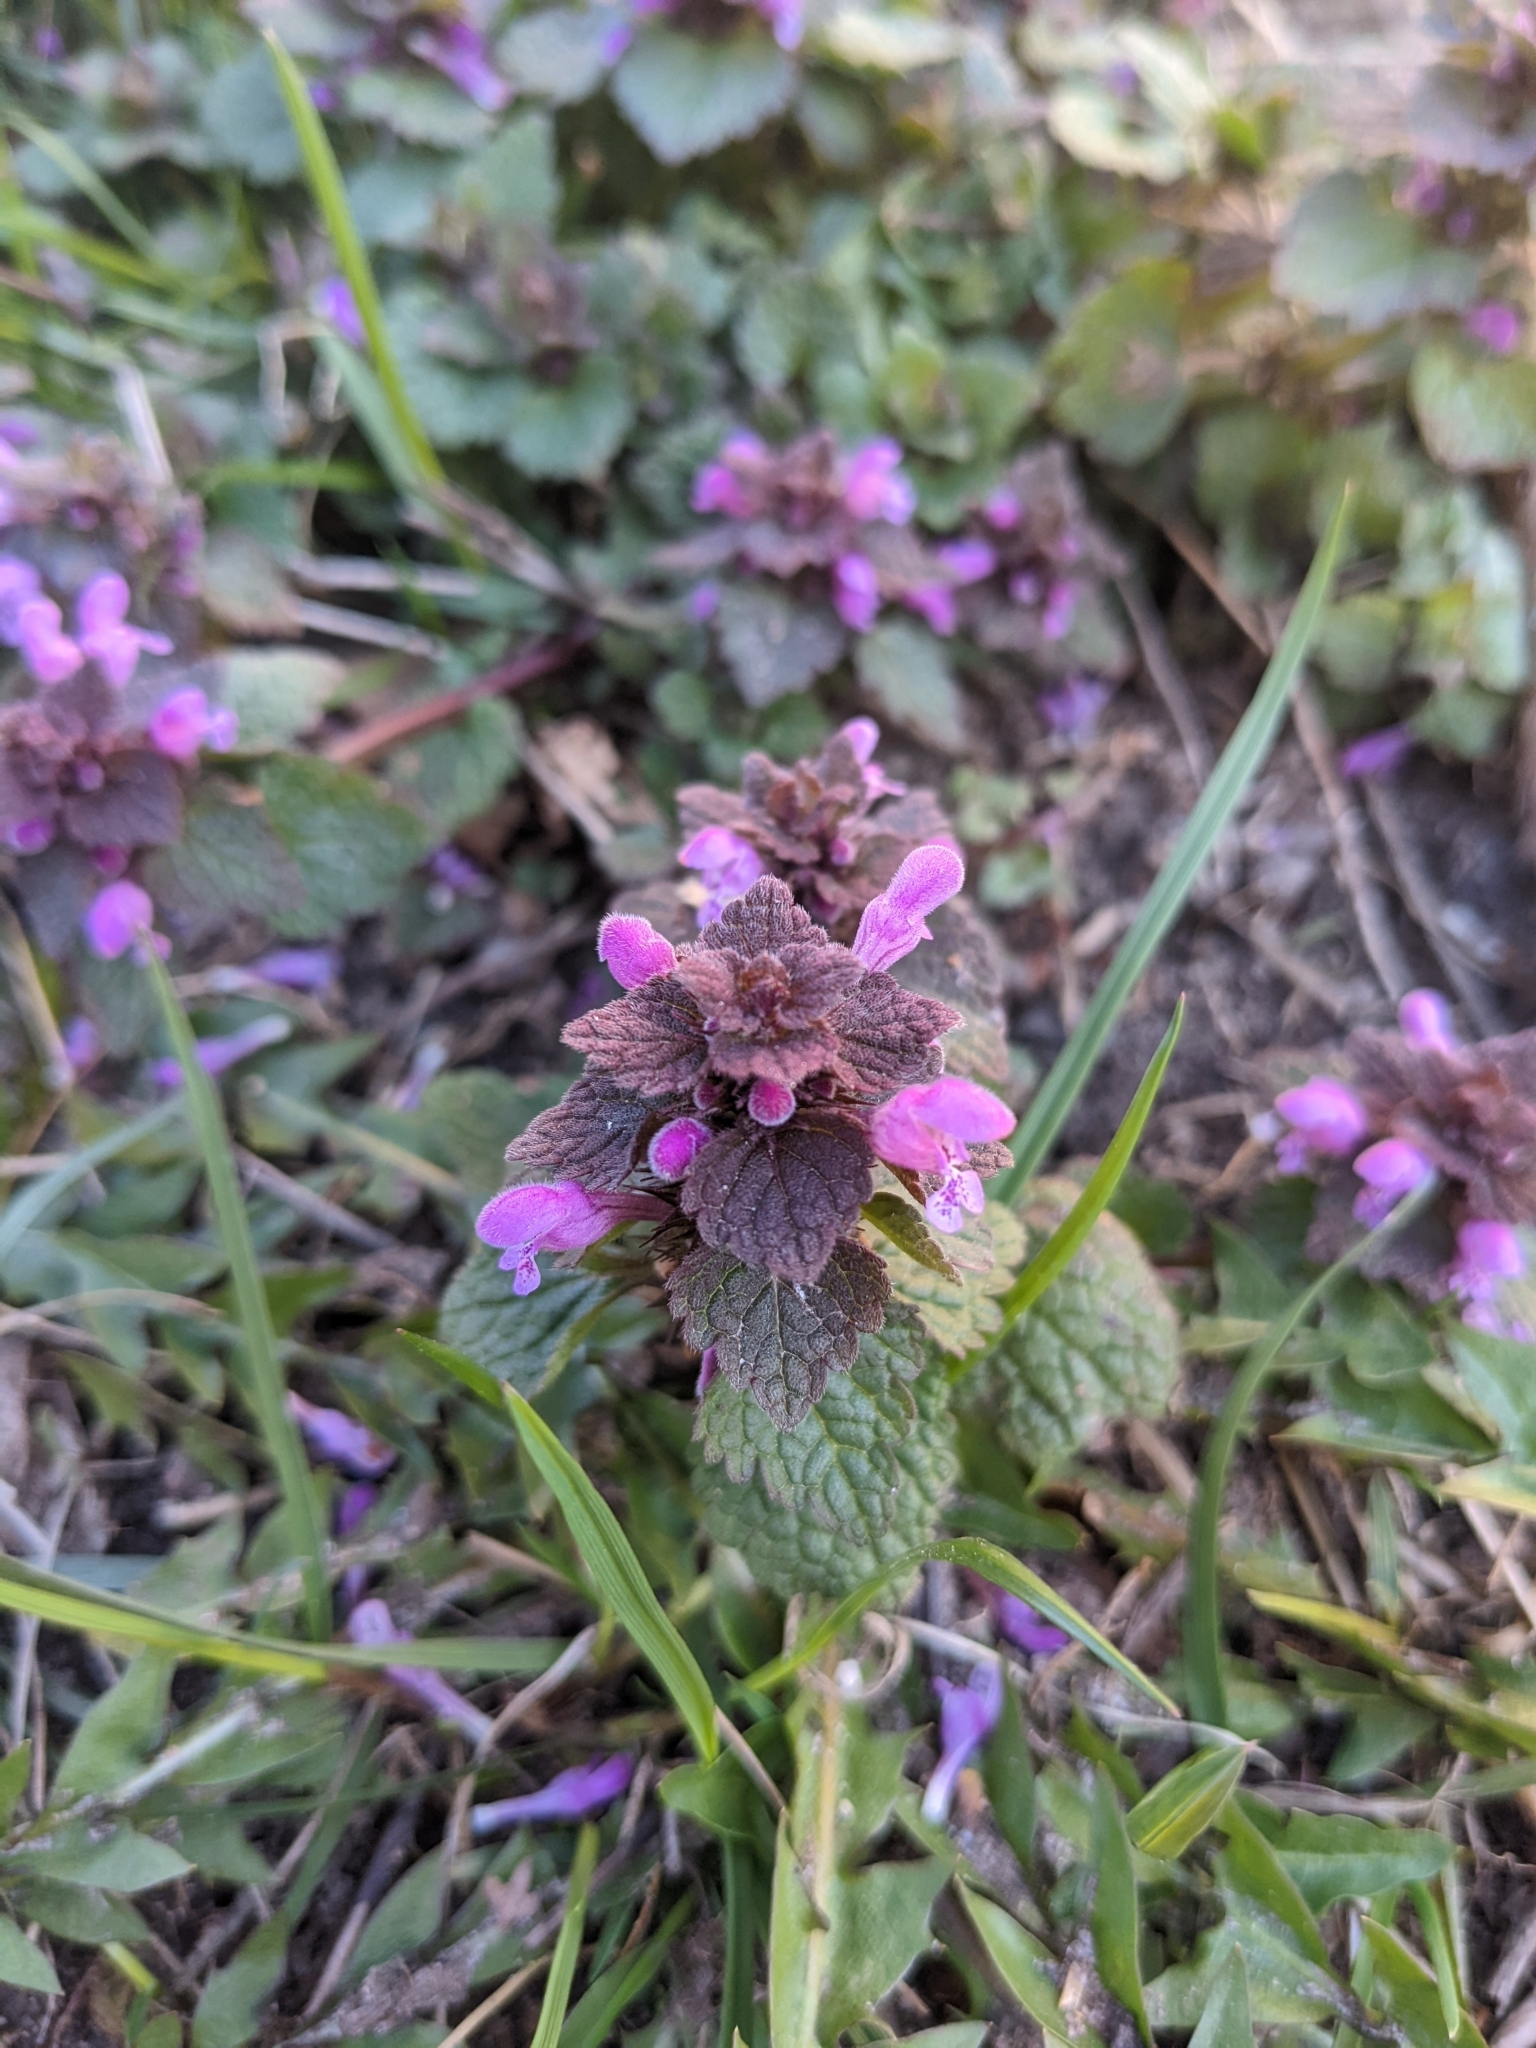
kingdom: Plantae
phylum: Tracheophyta
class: Magnoliopsida
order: Lamiales
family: Lamiaceae
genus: Lamium
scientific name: Lamium purpureum
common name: Red dead-nettle
